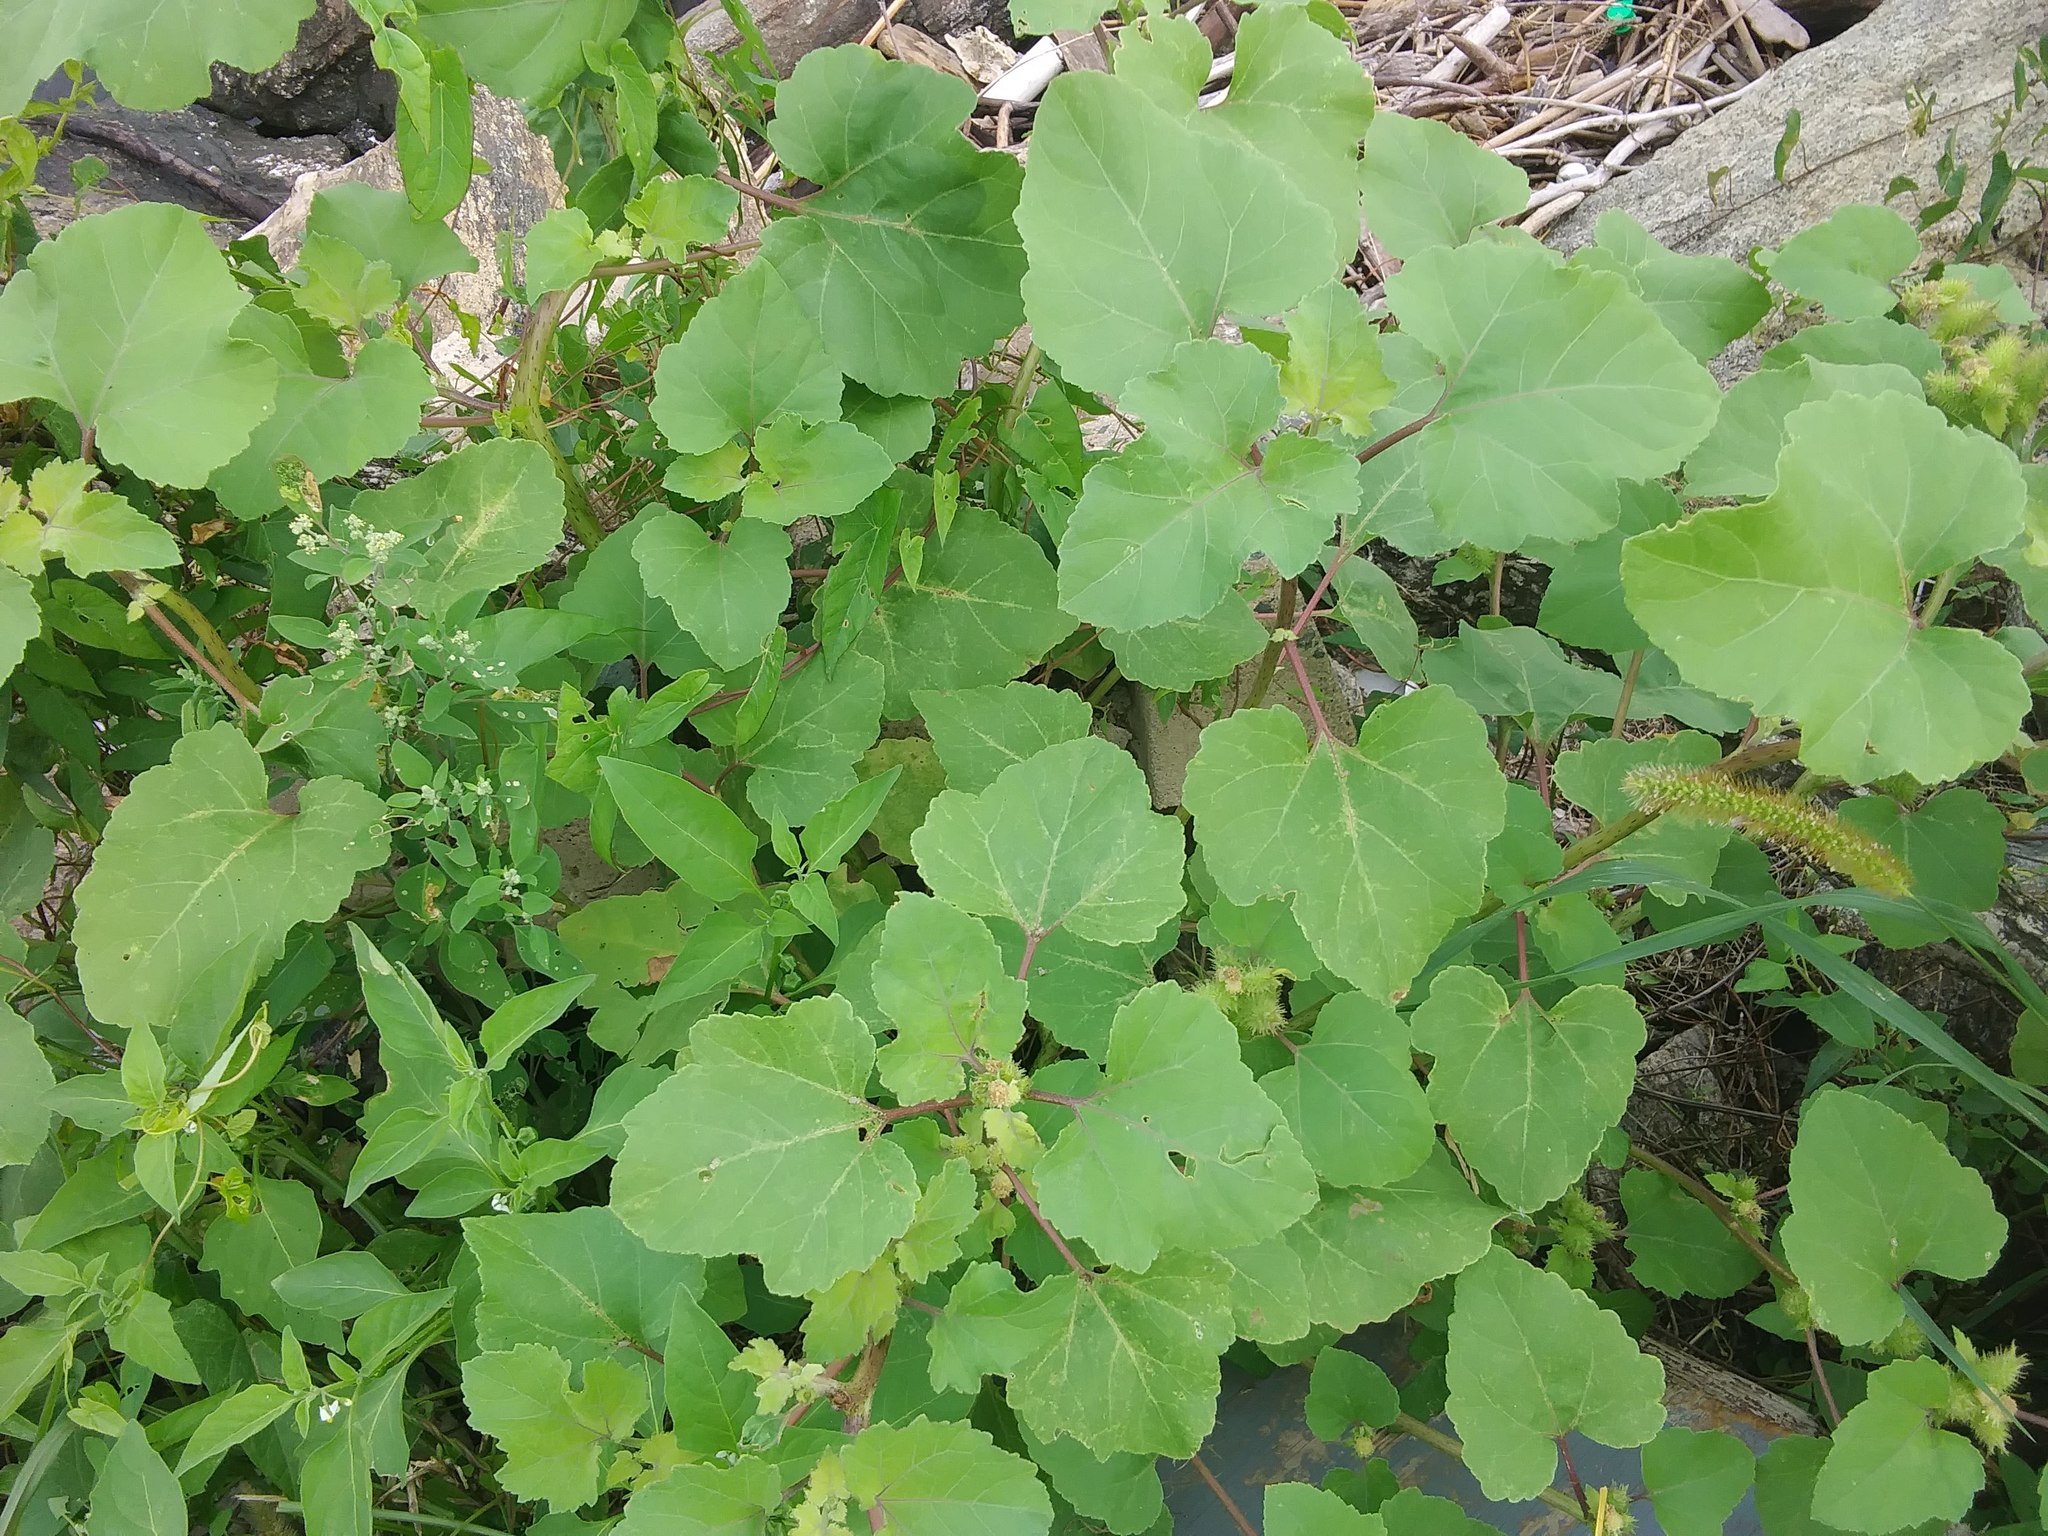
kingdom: Plantae
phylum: Tracheophyta
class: Magnoliopsida
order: Asterales
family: Asteraceae
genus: Xanthium
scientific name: Xanthium strumarium
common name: Rough cocklebur
